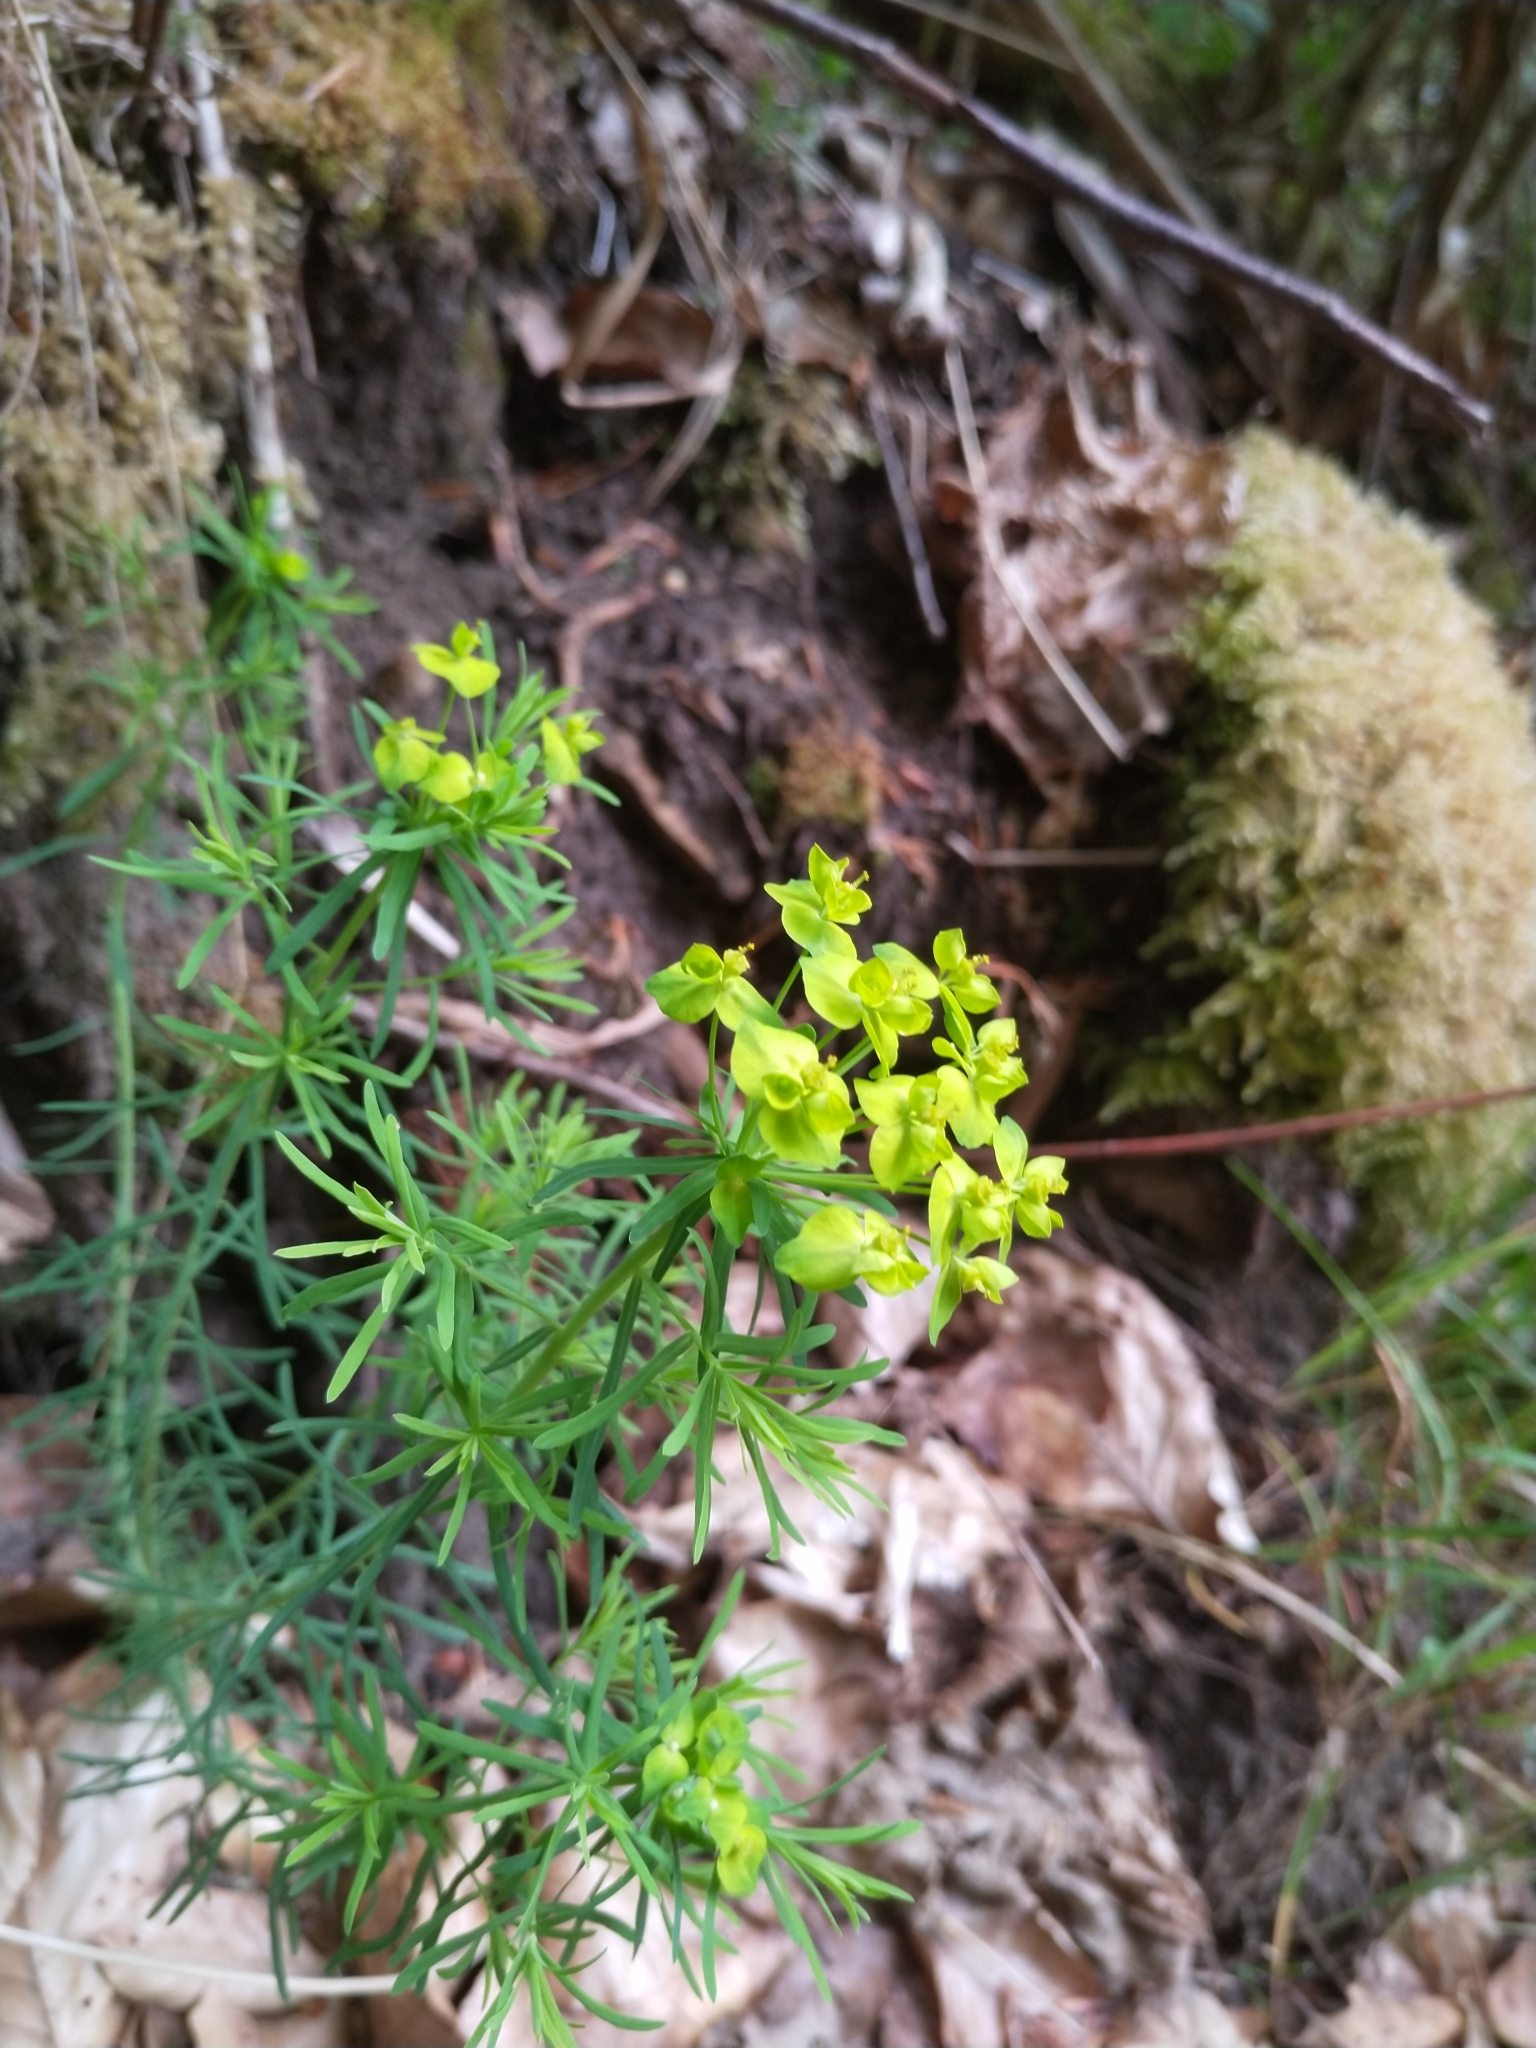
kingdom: Plantae
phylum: Tracheophyta
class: Magnoliopsida
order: Malpighiales
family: Euphorbiaceae
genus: Euphorbia
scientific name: Euphorbia cyparissias
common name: Cypress spurge
